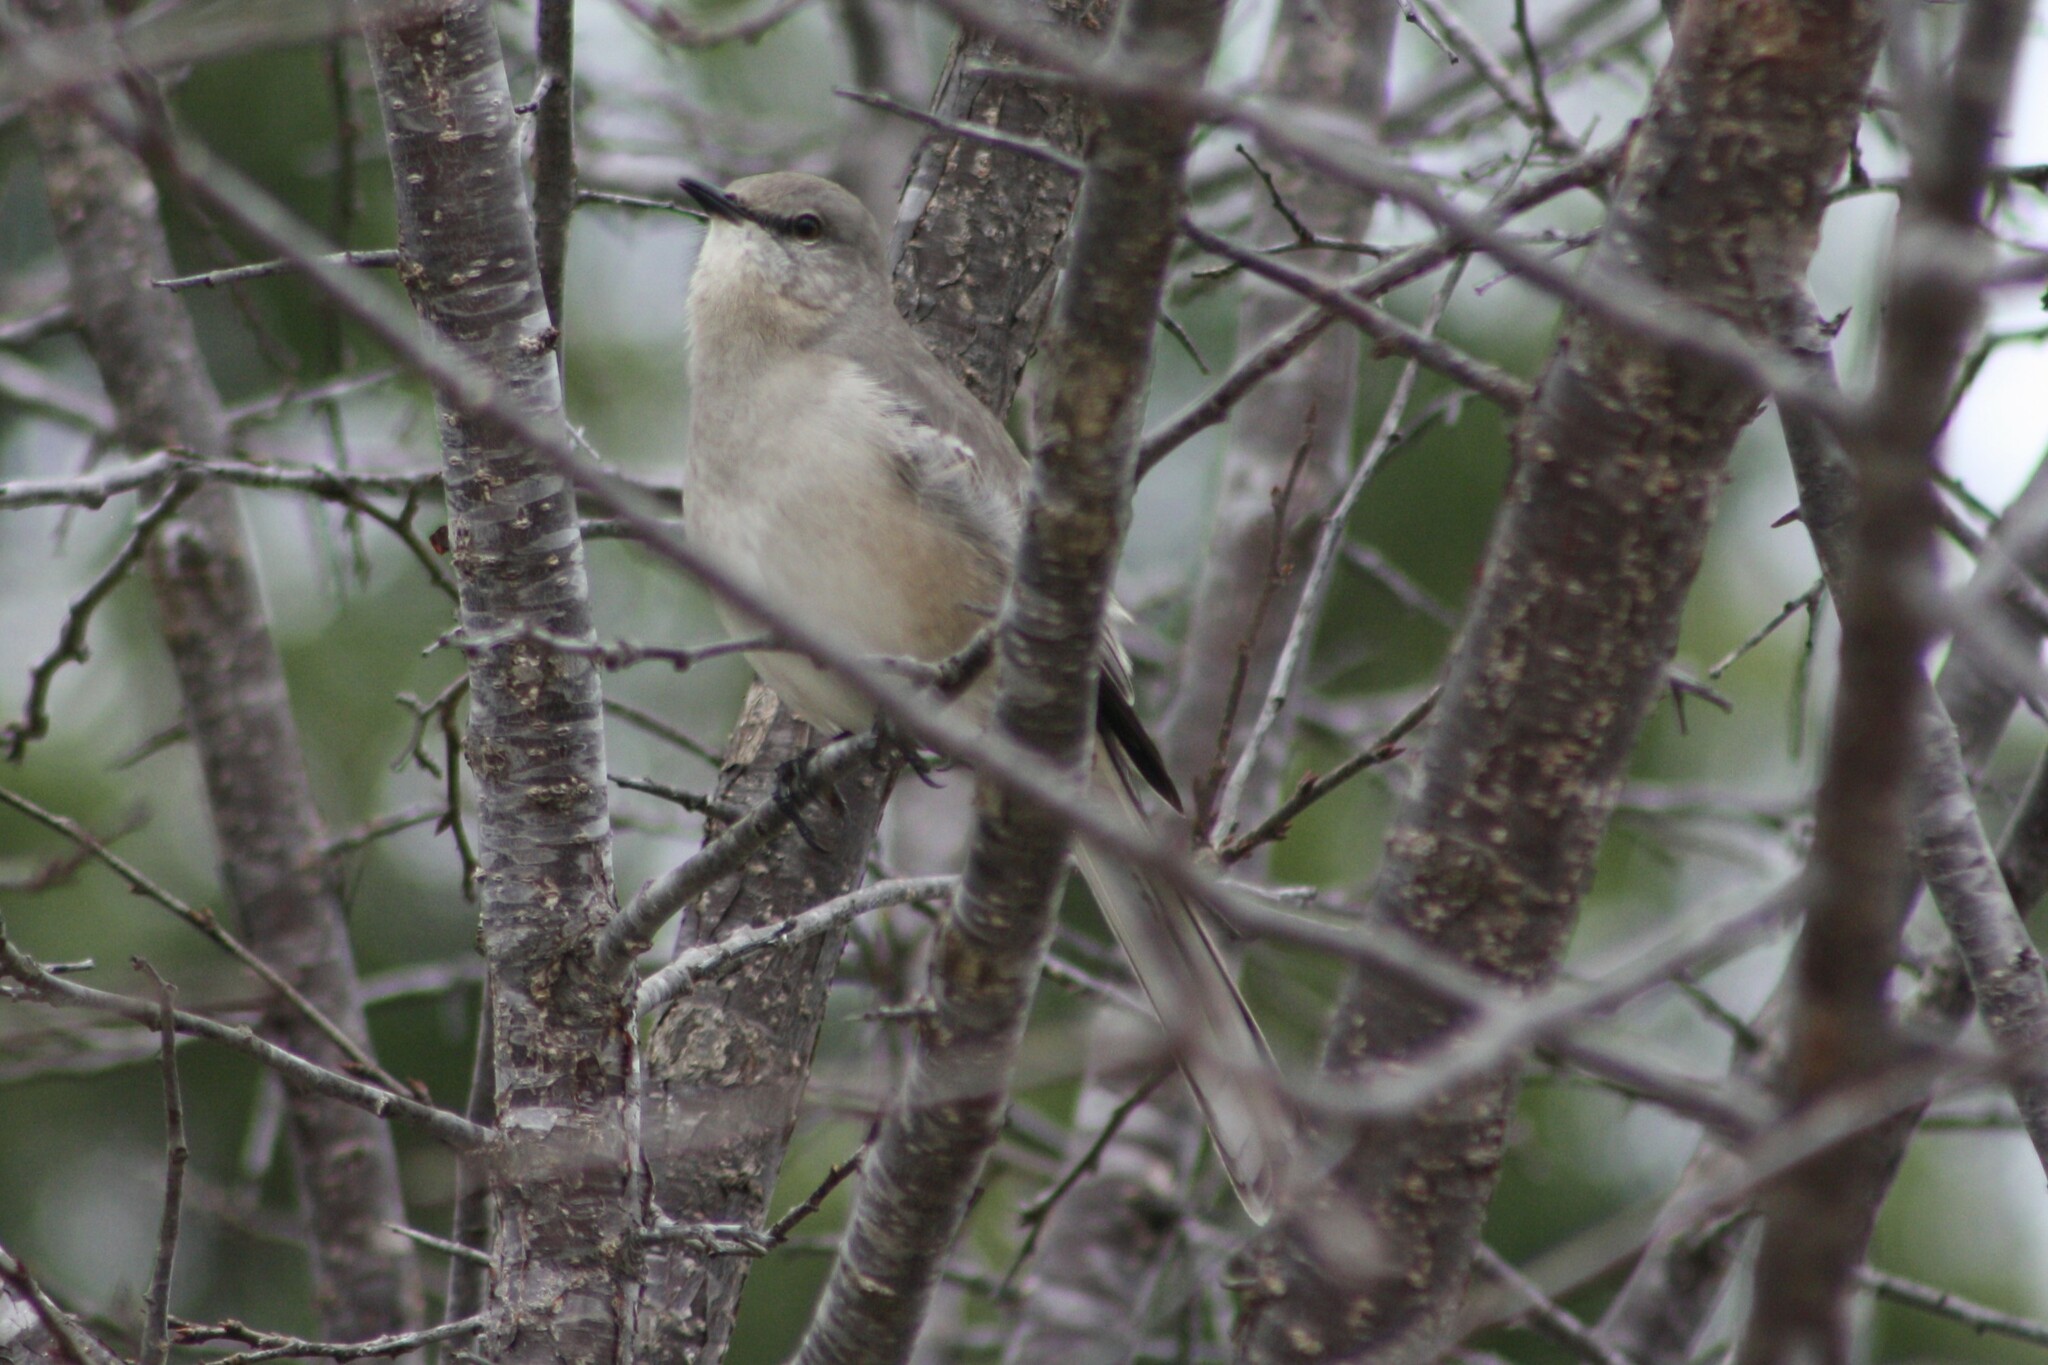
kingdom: Animalia
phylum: Chordata
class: Aves
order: Passeriformes
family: Mimidae
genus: Mimus
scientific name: Mimus polyglottos
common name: Northern mockingbird
